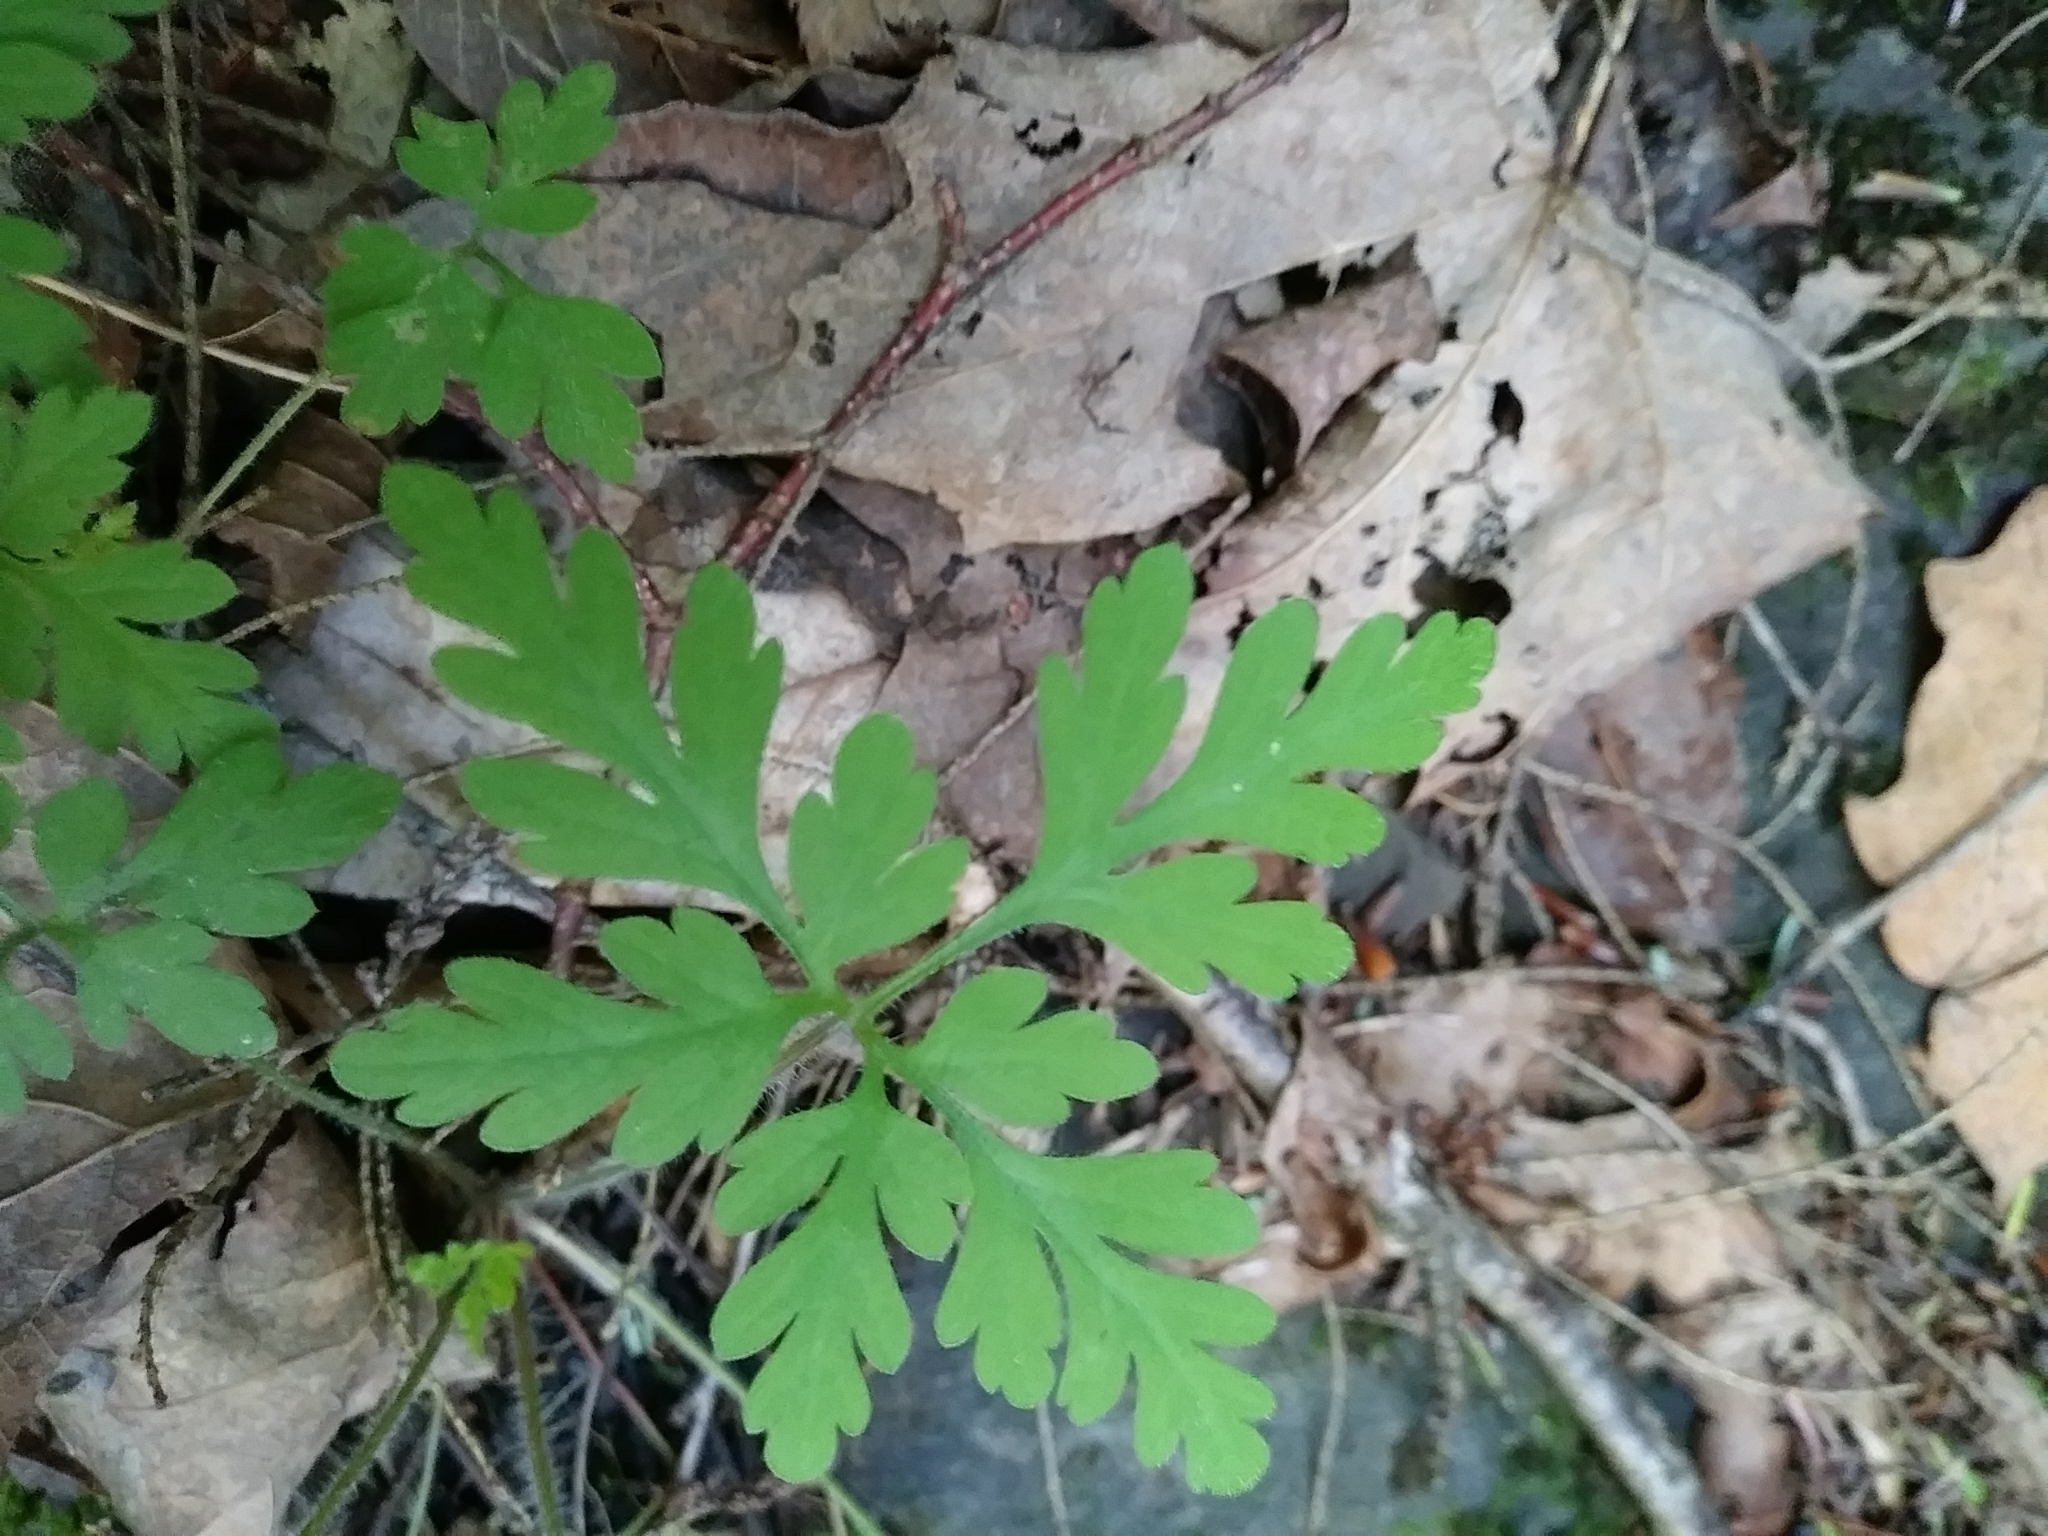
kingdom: Plantae
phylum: Tracheophyta
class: Magnoliopsida
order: Geraniales
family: Geraniaceae
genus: Geranium
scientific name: Geranium robertianum
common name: Herb-robert
